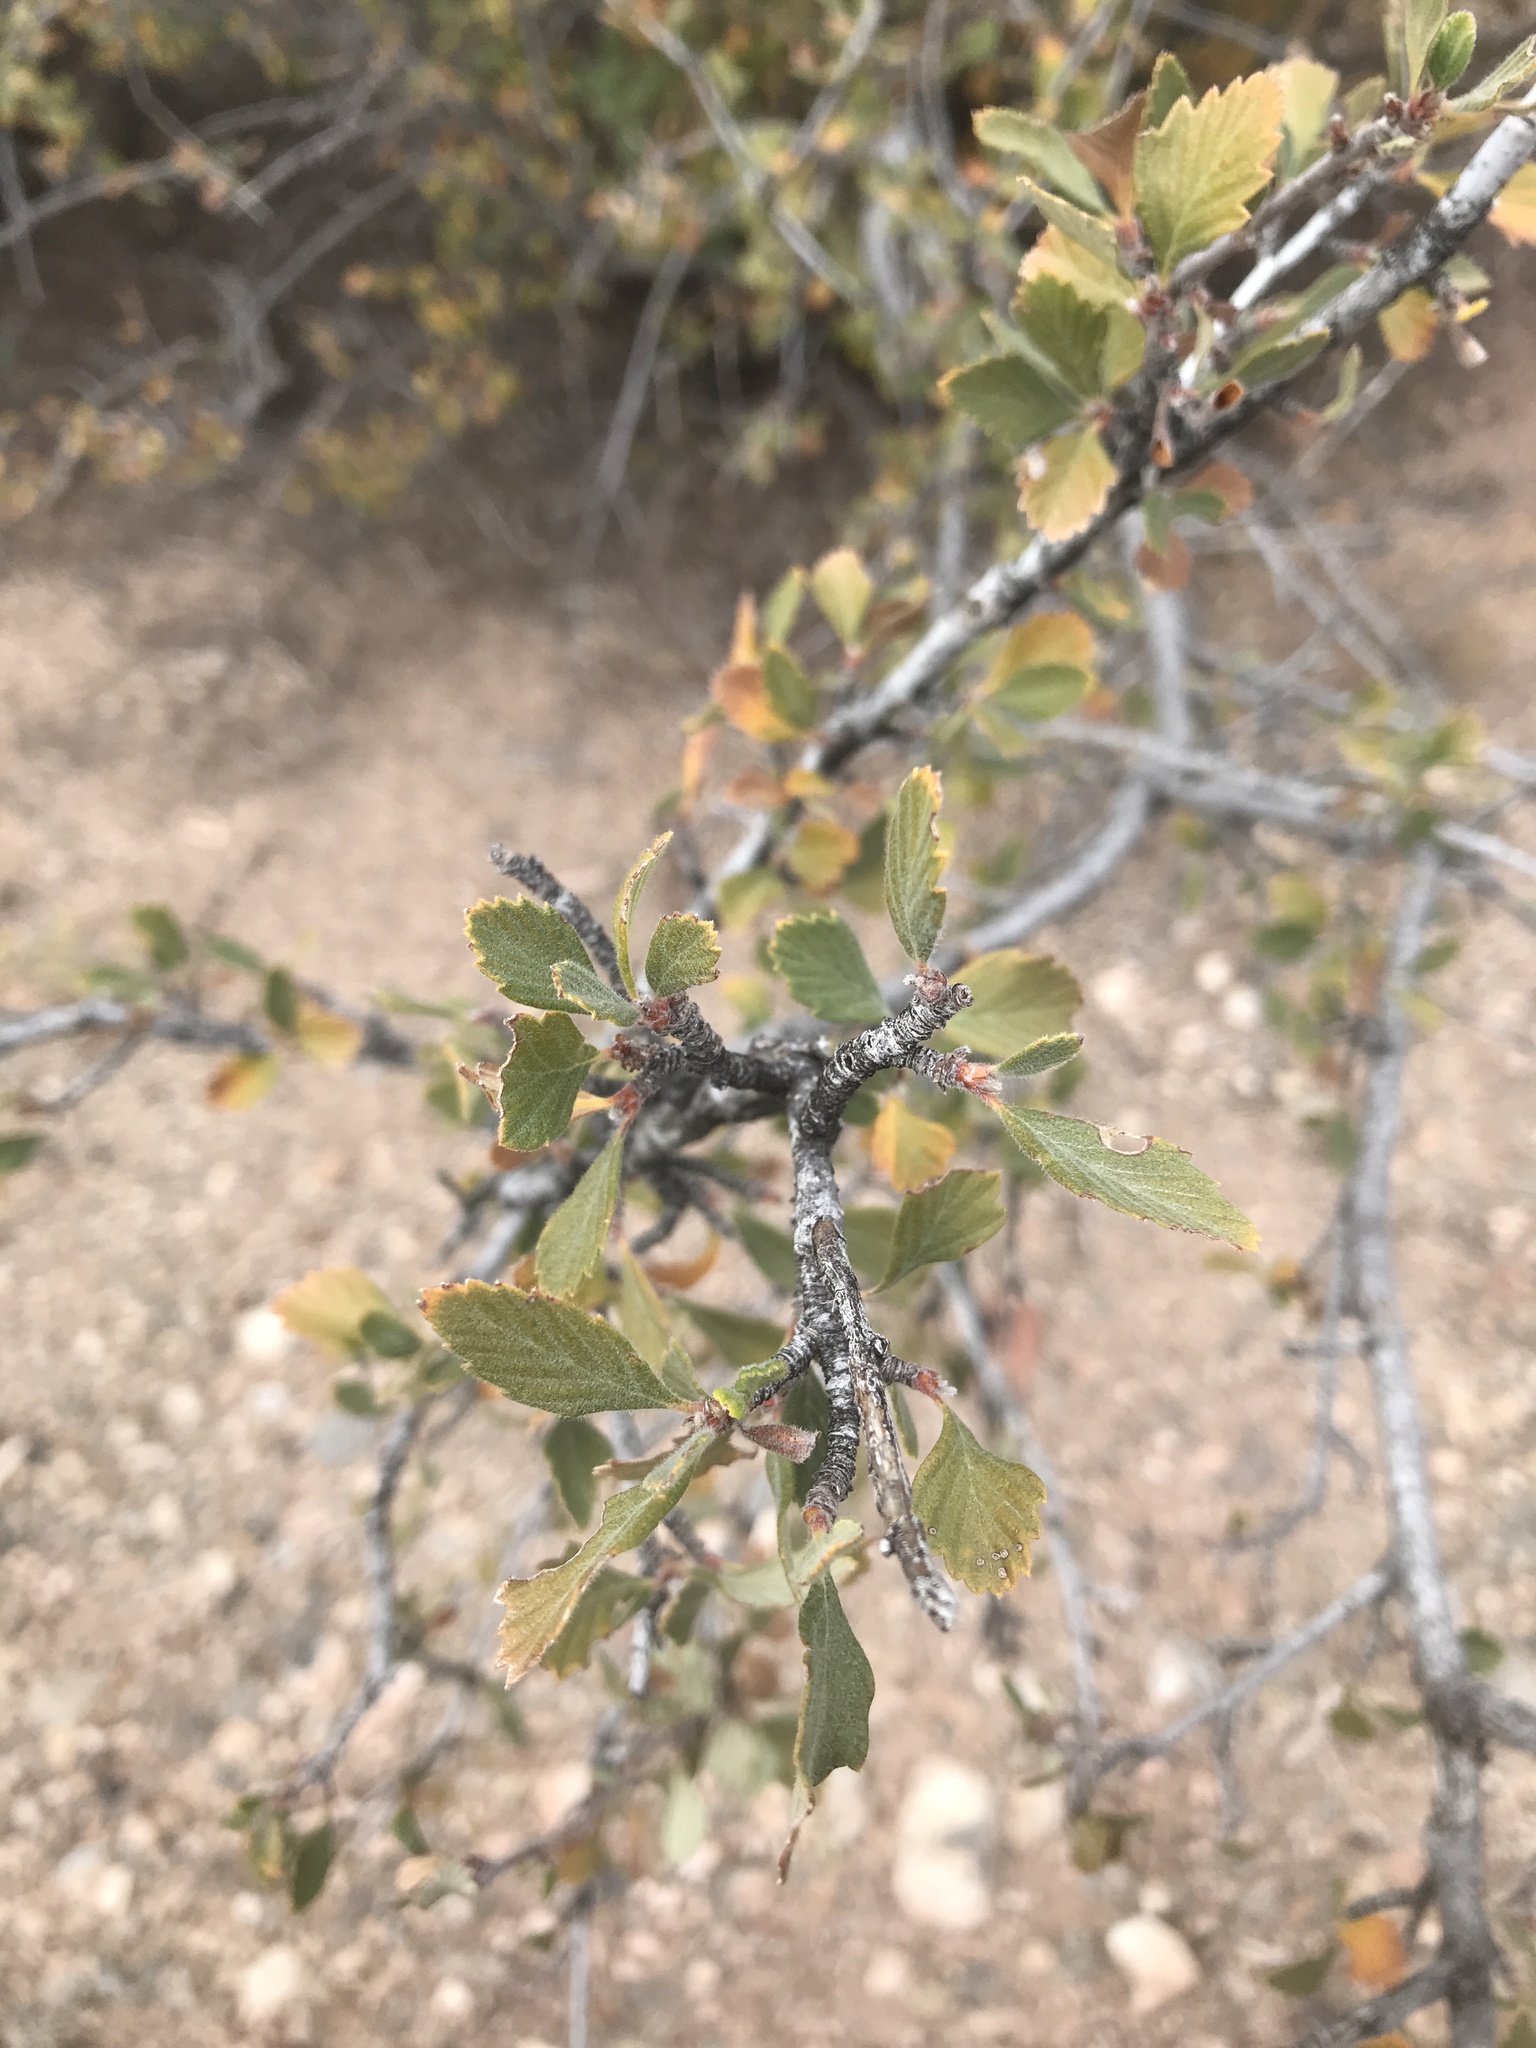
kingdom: Plantae
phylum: Tracheophyta
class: Magnoliopsida
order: Rosales
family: Rosaceae
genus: Cercocarpus
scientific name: Cercocarpus montanus
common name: Alder-leaf cercocarpus
